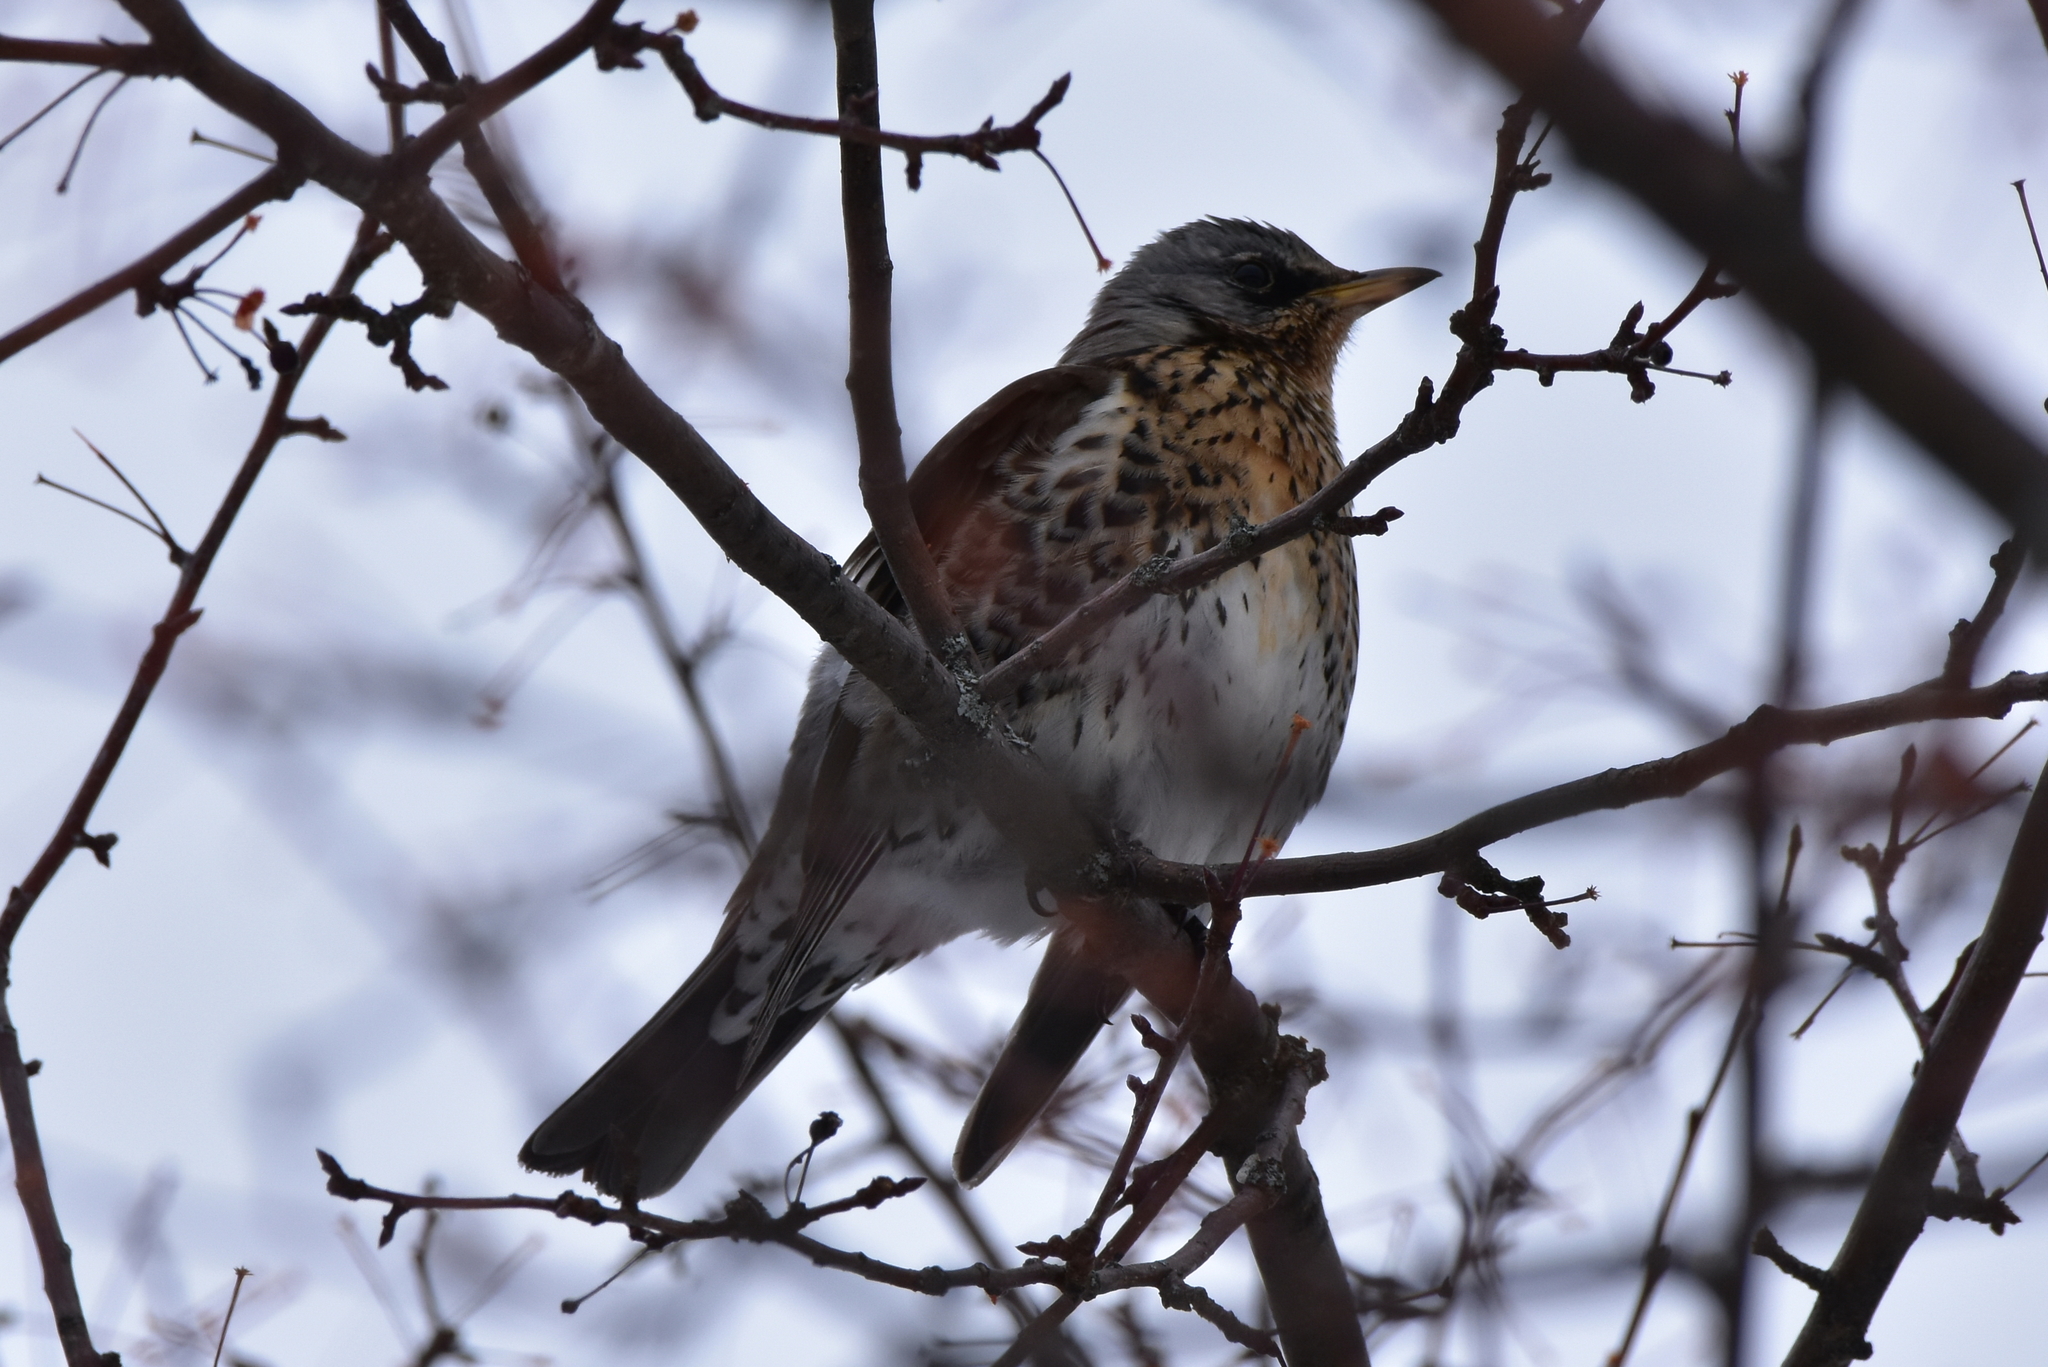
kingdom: Animalia
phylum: Chordata
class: Aves
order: Passeriformes
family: Turdidae
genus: Turdus
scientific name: Turdus pilaris
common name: Fieldfare
